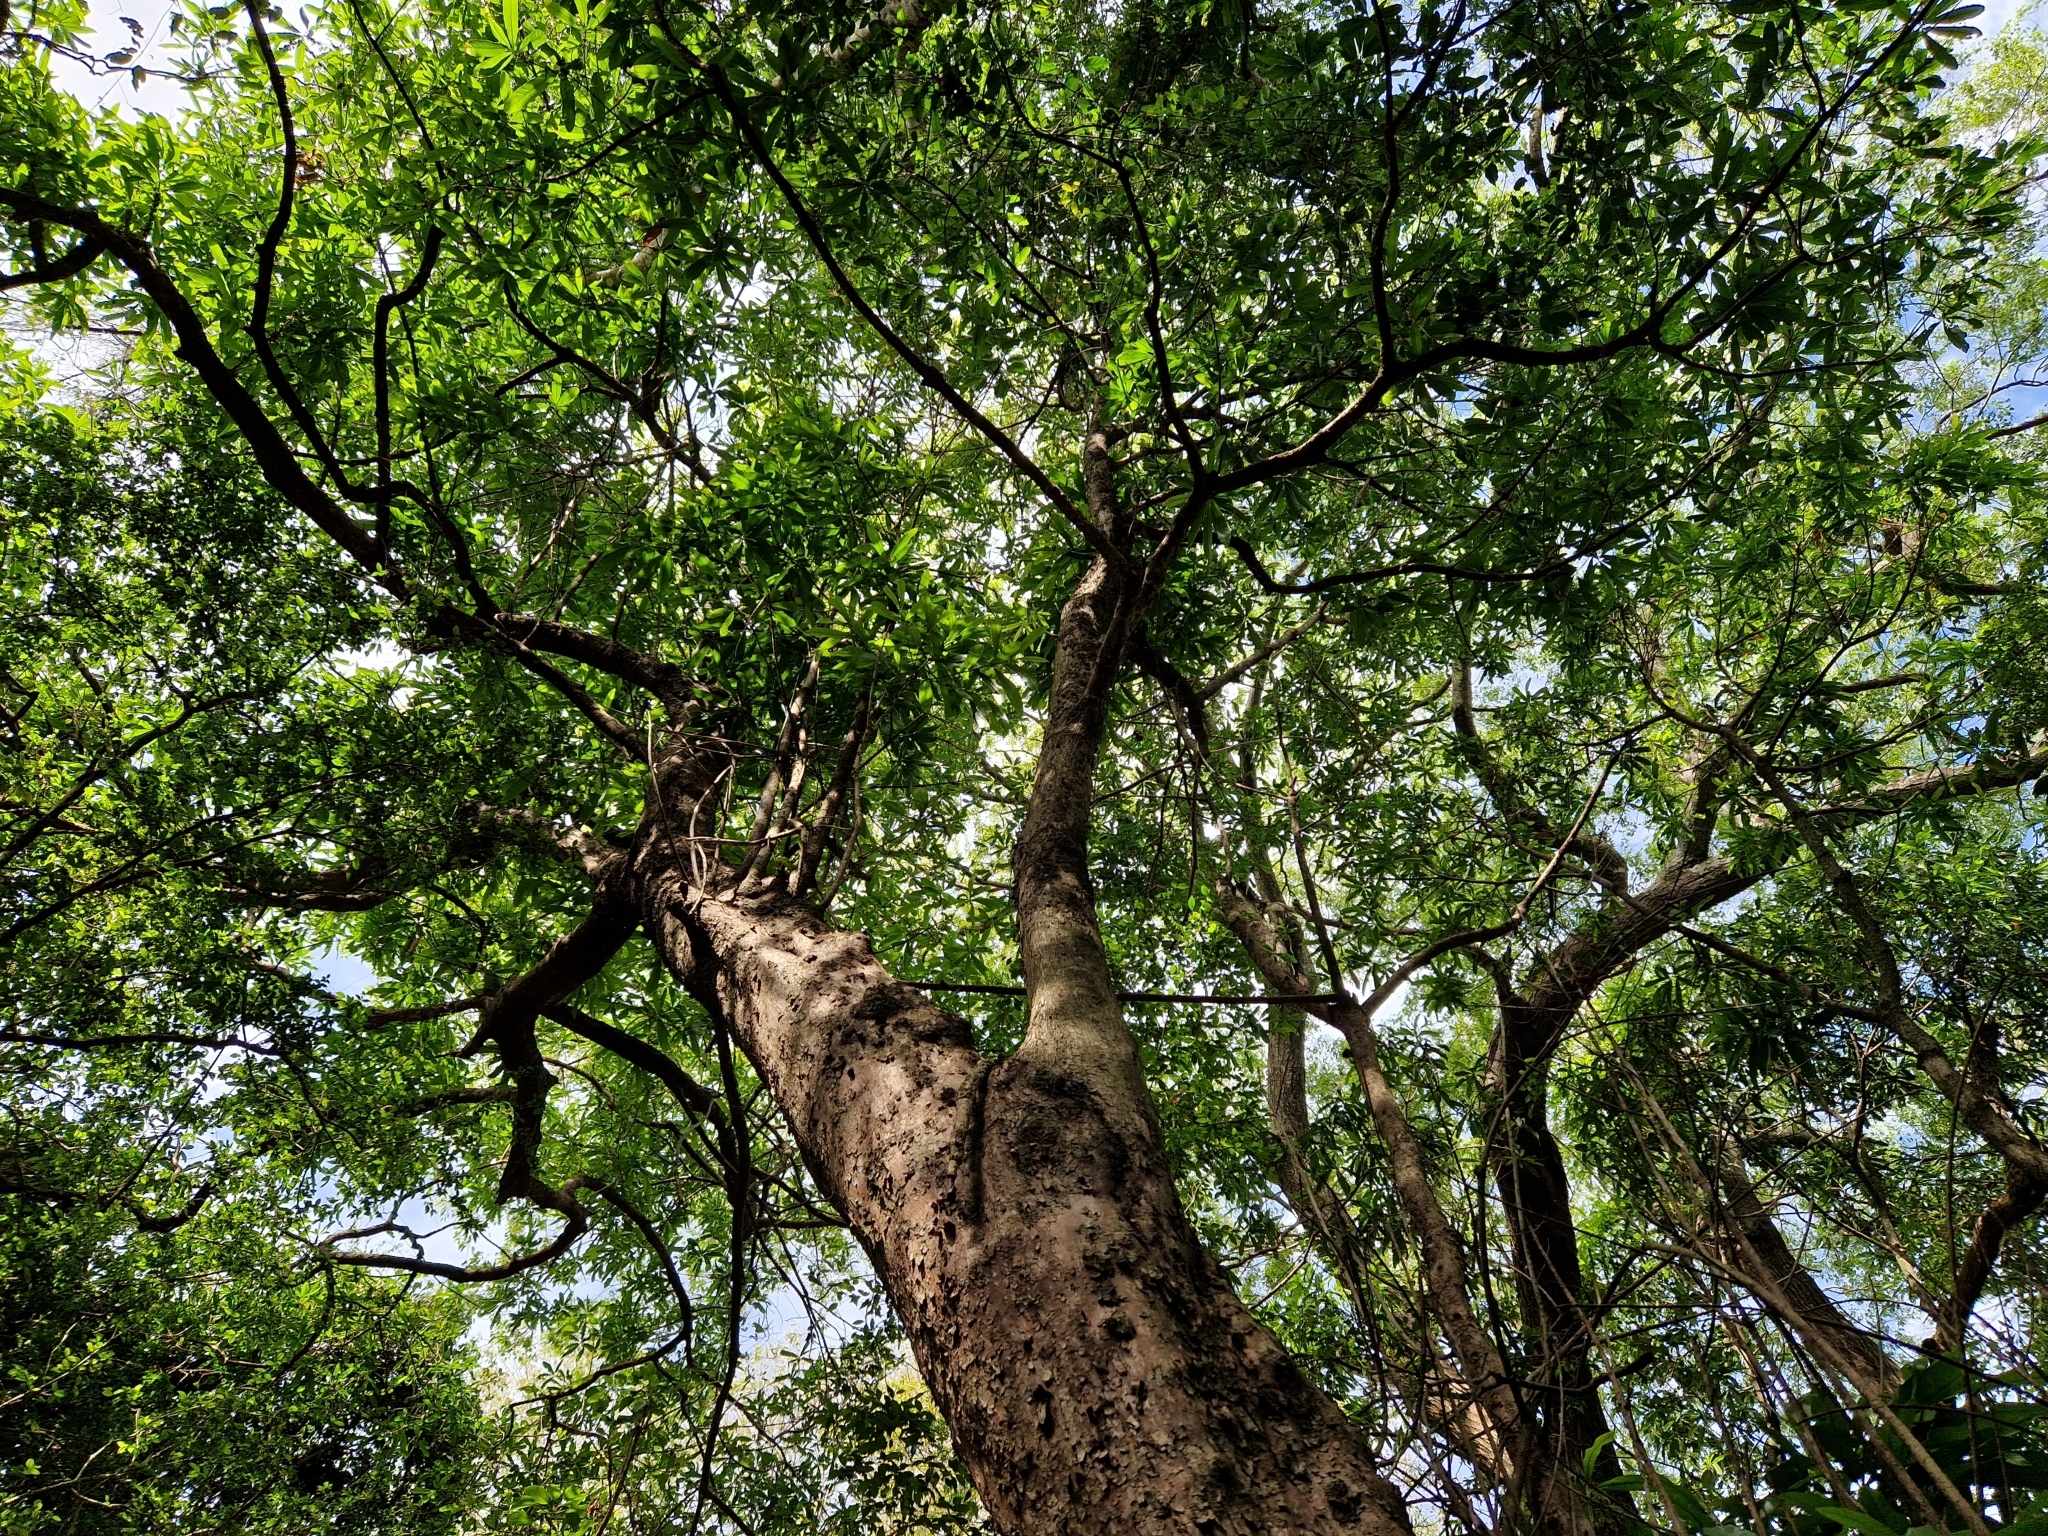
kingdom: Plantae
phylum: Tracheophyta
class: Magnoliopsida
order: Ericales
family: Sapotaceae
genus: Pouteria
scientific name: Pouteria gardneriana
